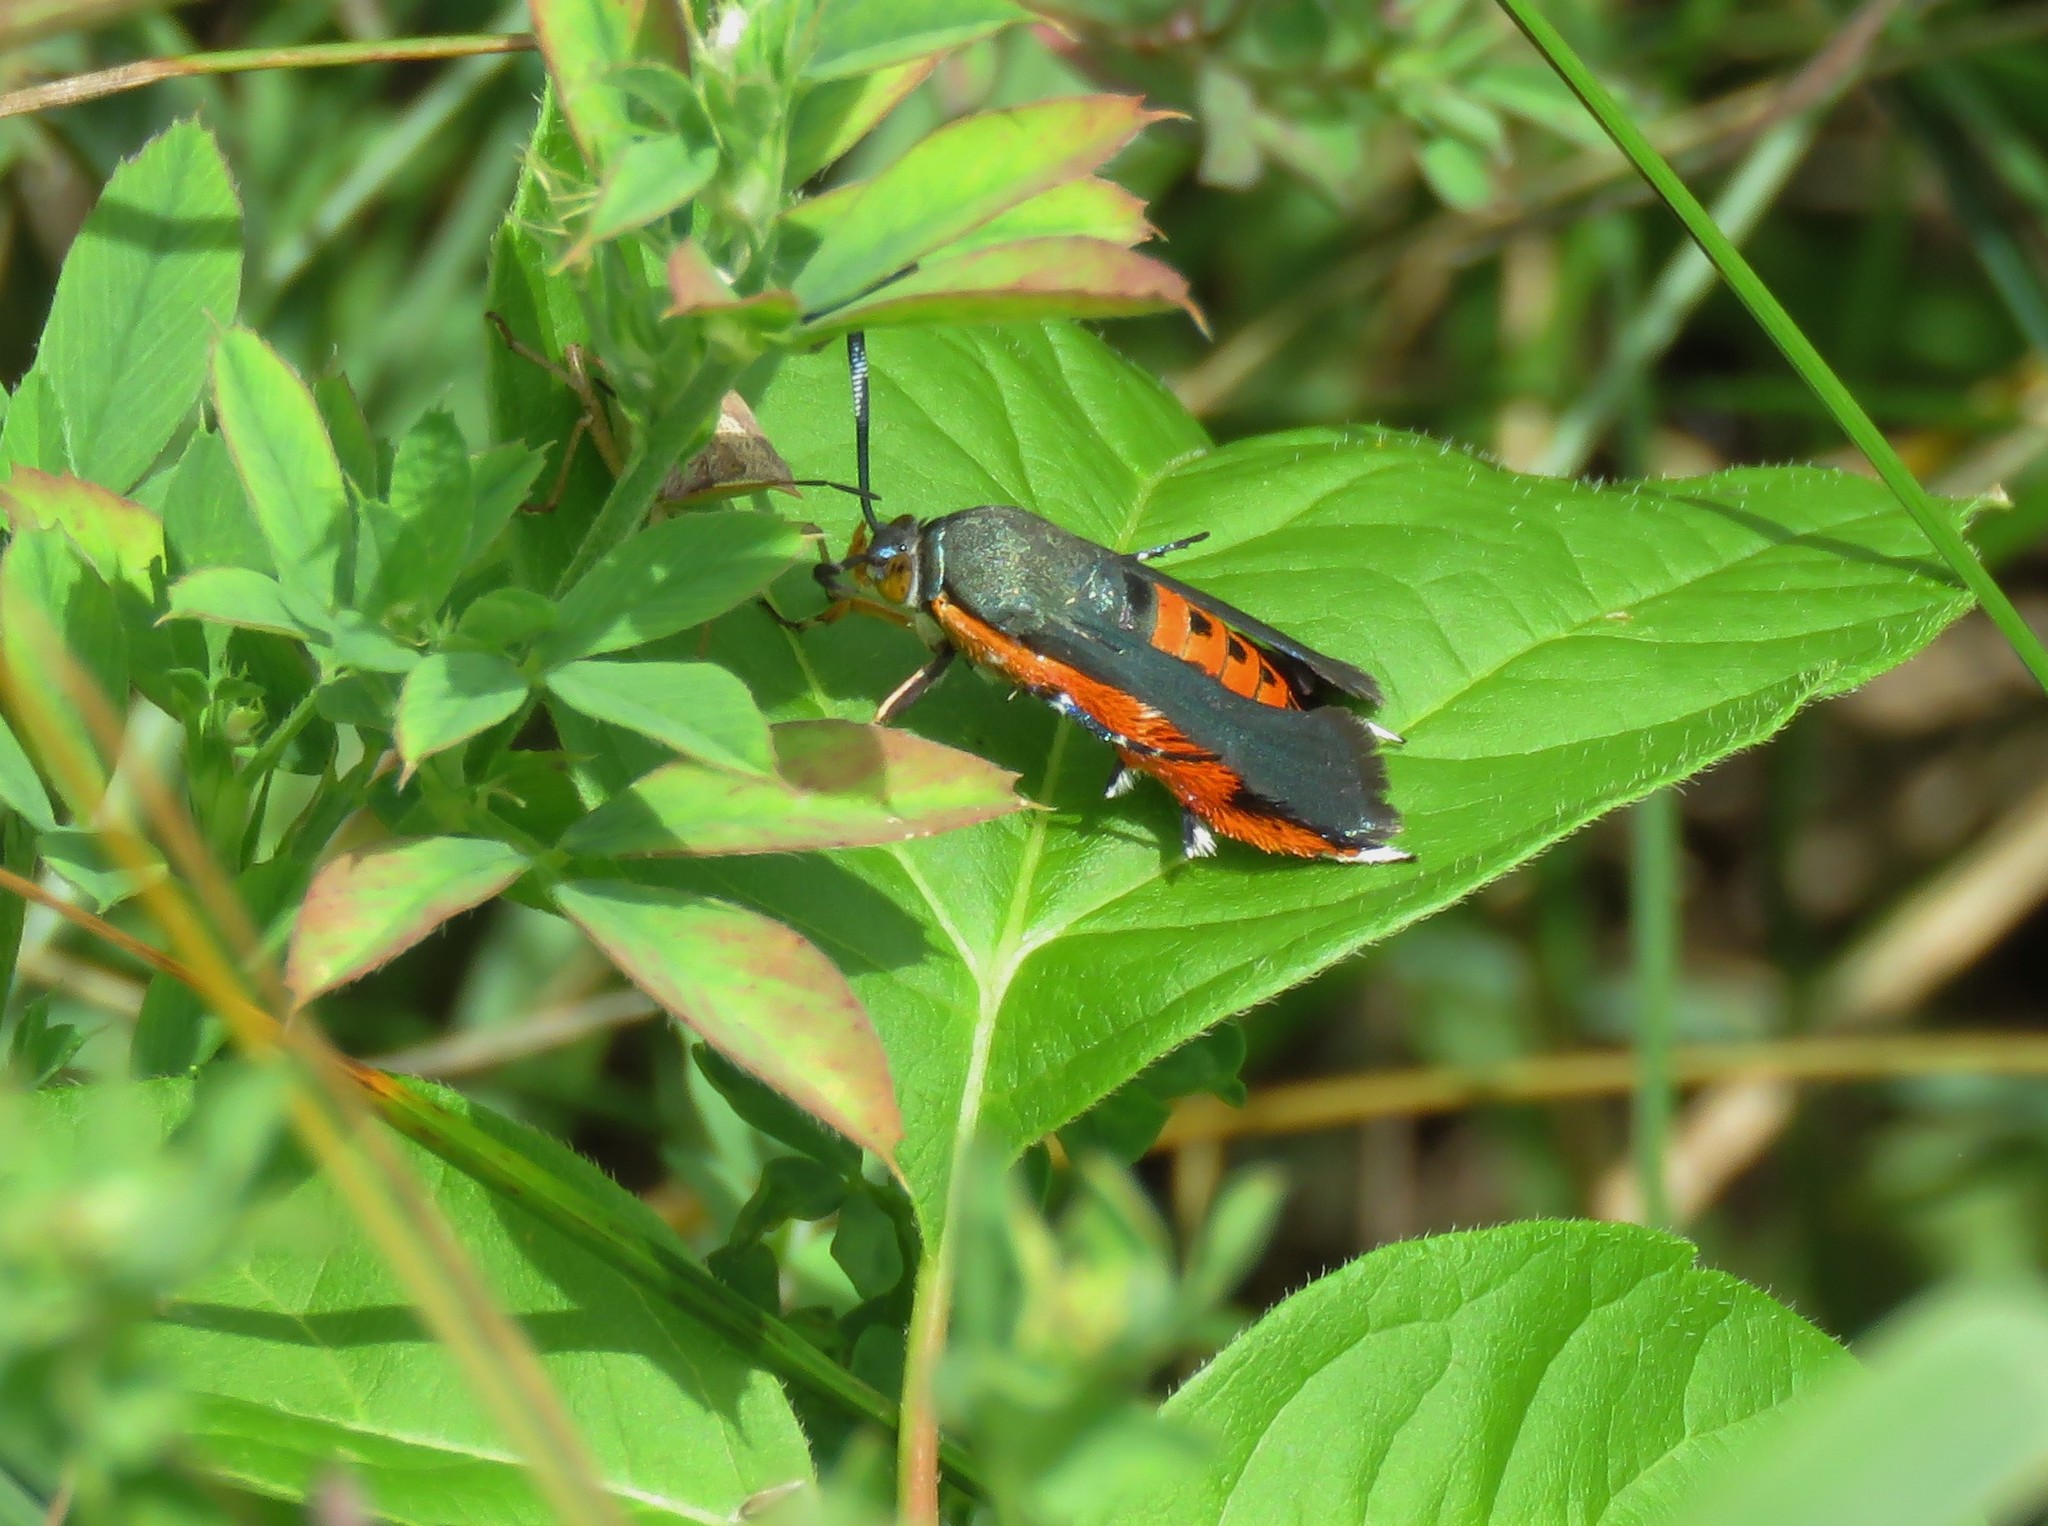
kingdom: Animalia
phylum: Arthropoda
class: Insecta
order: Lepidoptera
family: Sesiidae
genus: Eichlinia
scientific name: Eichlinia cucurbitae
